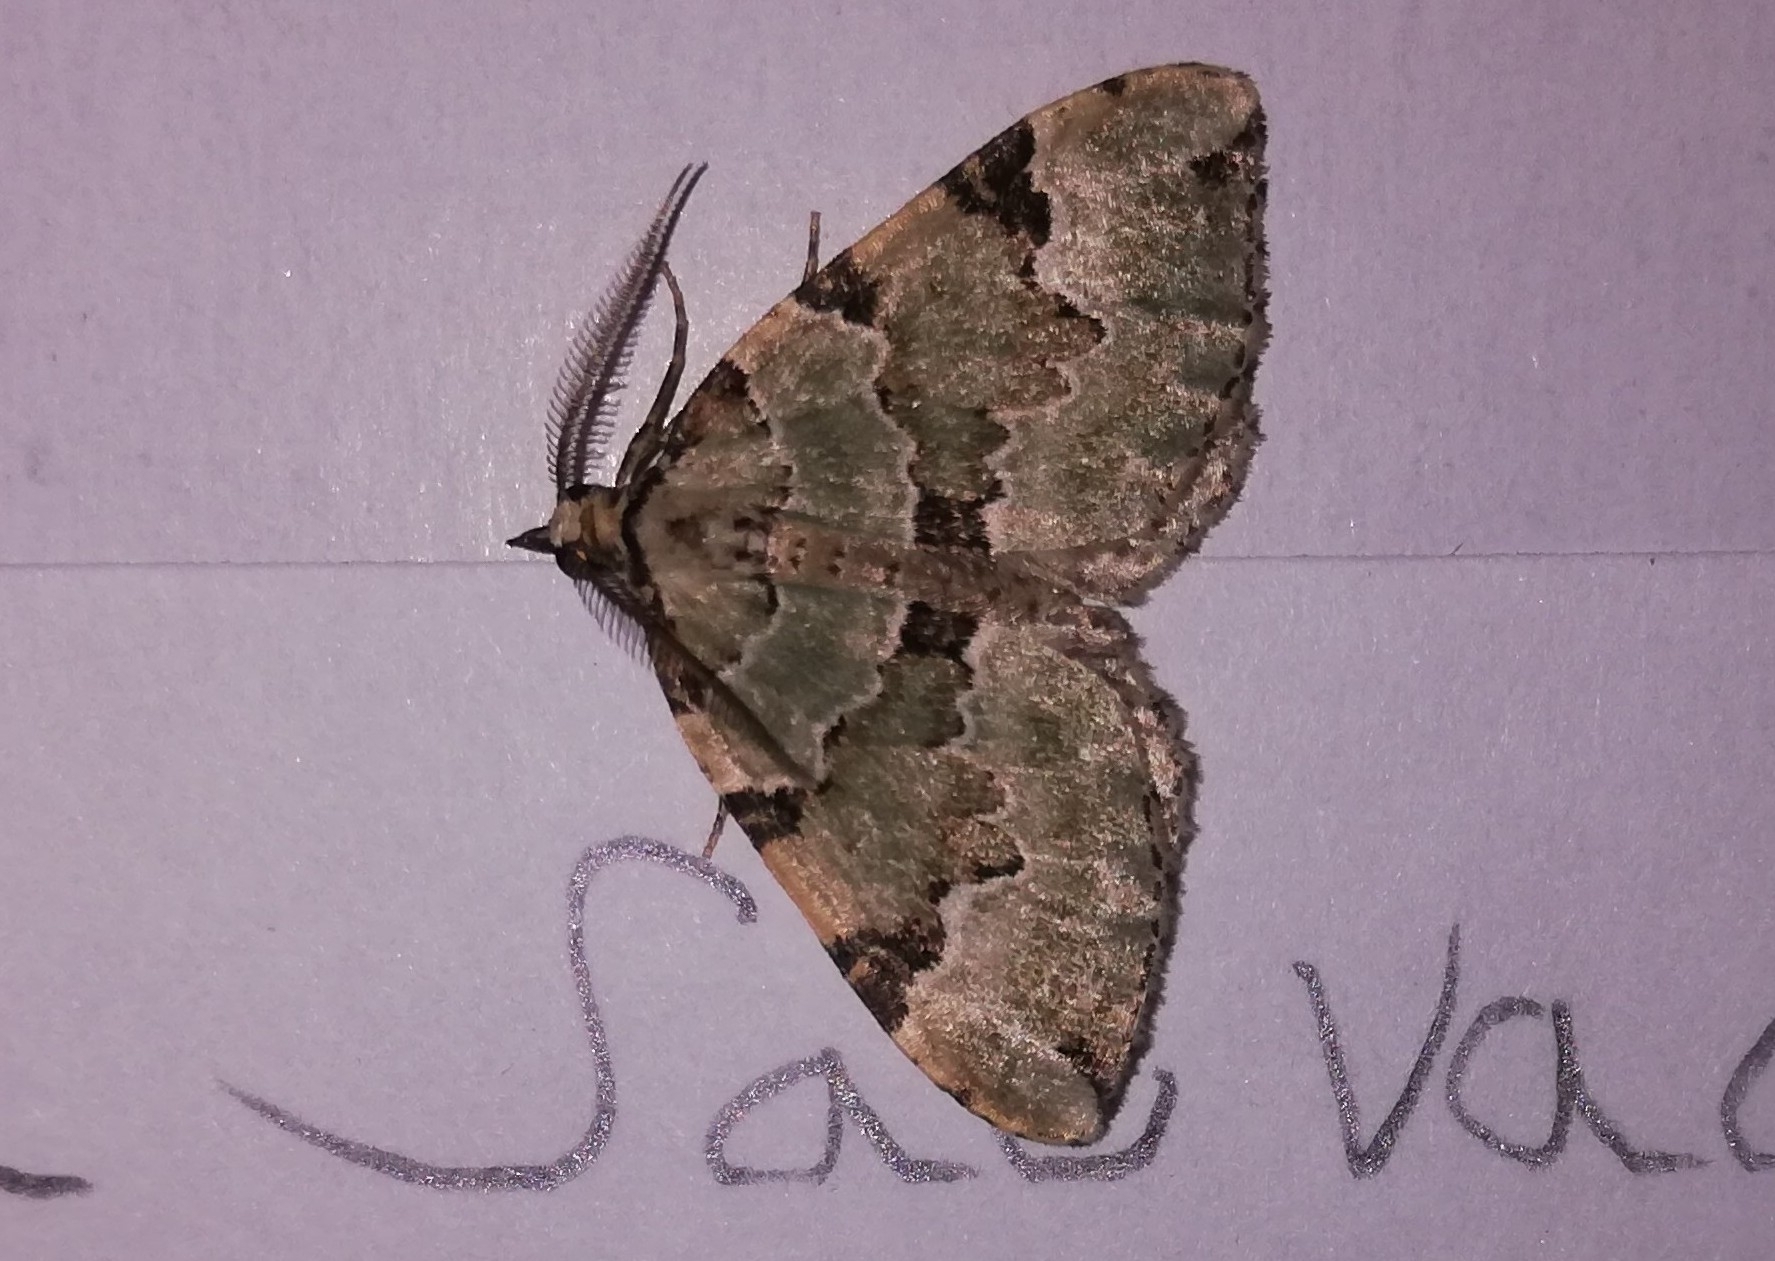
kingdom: Animalia
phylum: Arthropoda
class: Insecta
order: Lepidoptera
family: Geometridae
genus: Colostygia
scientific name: Colostygia pectinataria
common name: Green carpet
